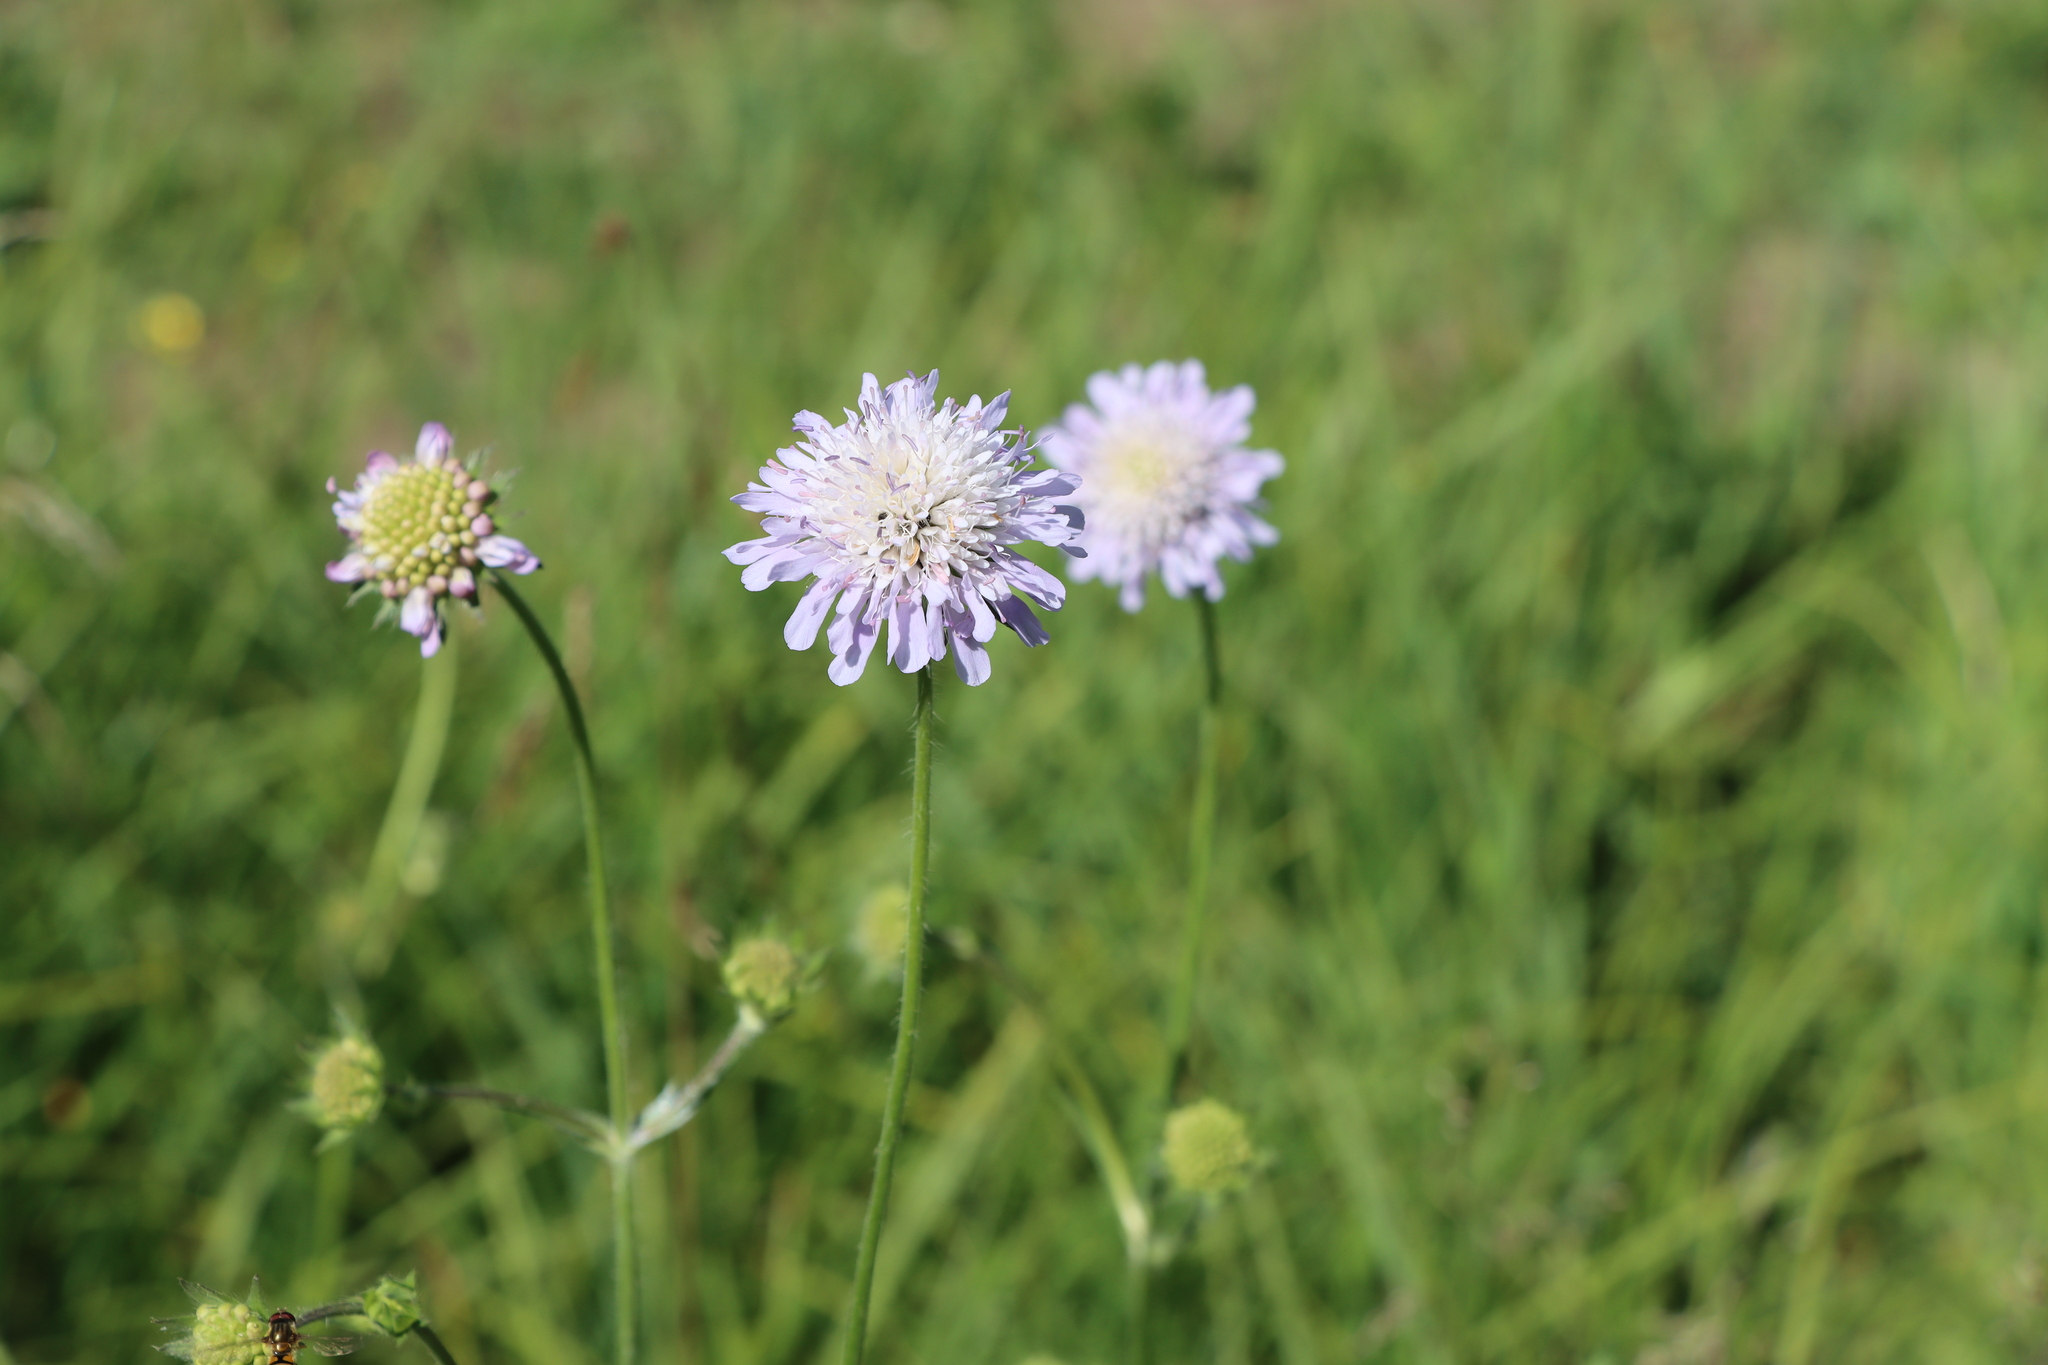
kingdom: Plantae
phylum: Tracheophyta
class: Magnoliopsida
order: Dipsacales
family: Caprifoliaceae
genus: Knautia
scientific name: Knautia arvensis
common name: Field scabiosa
